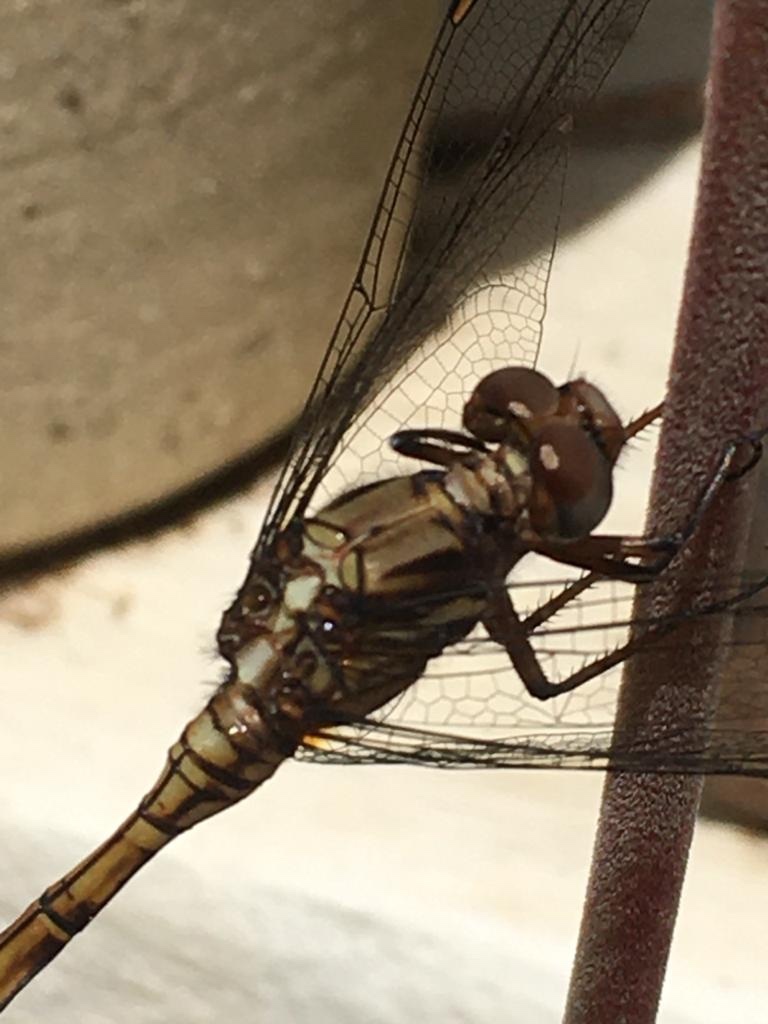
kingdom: Animalia
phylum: Arthropoda
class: Insecta
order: Odonata
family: Libellulidae
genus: Orthetrum
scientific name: Orthetrum julia
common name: Julia skimmer
